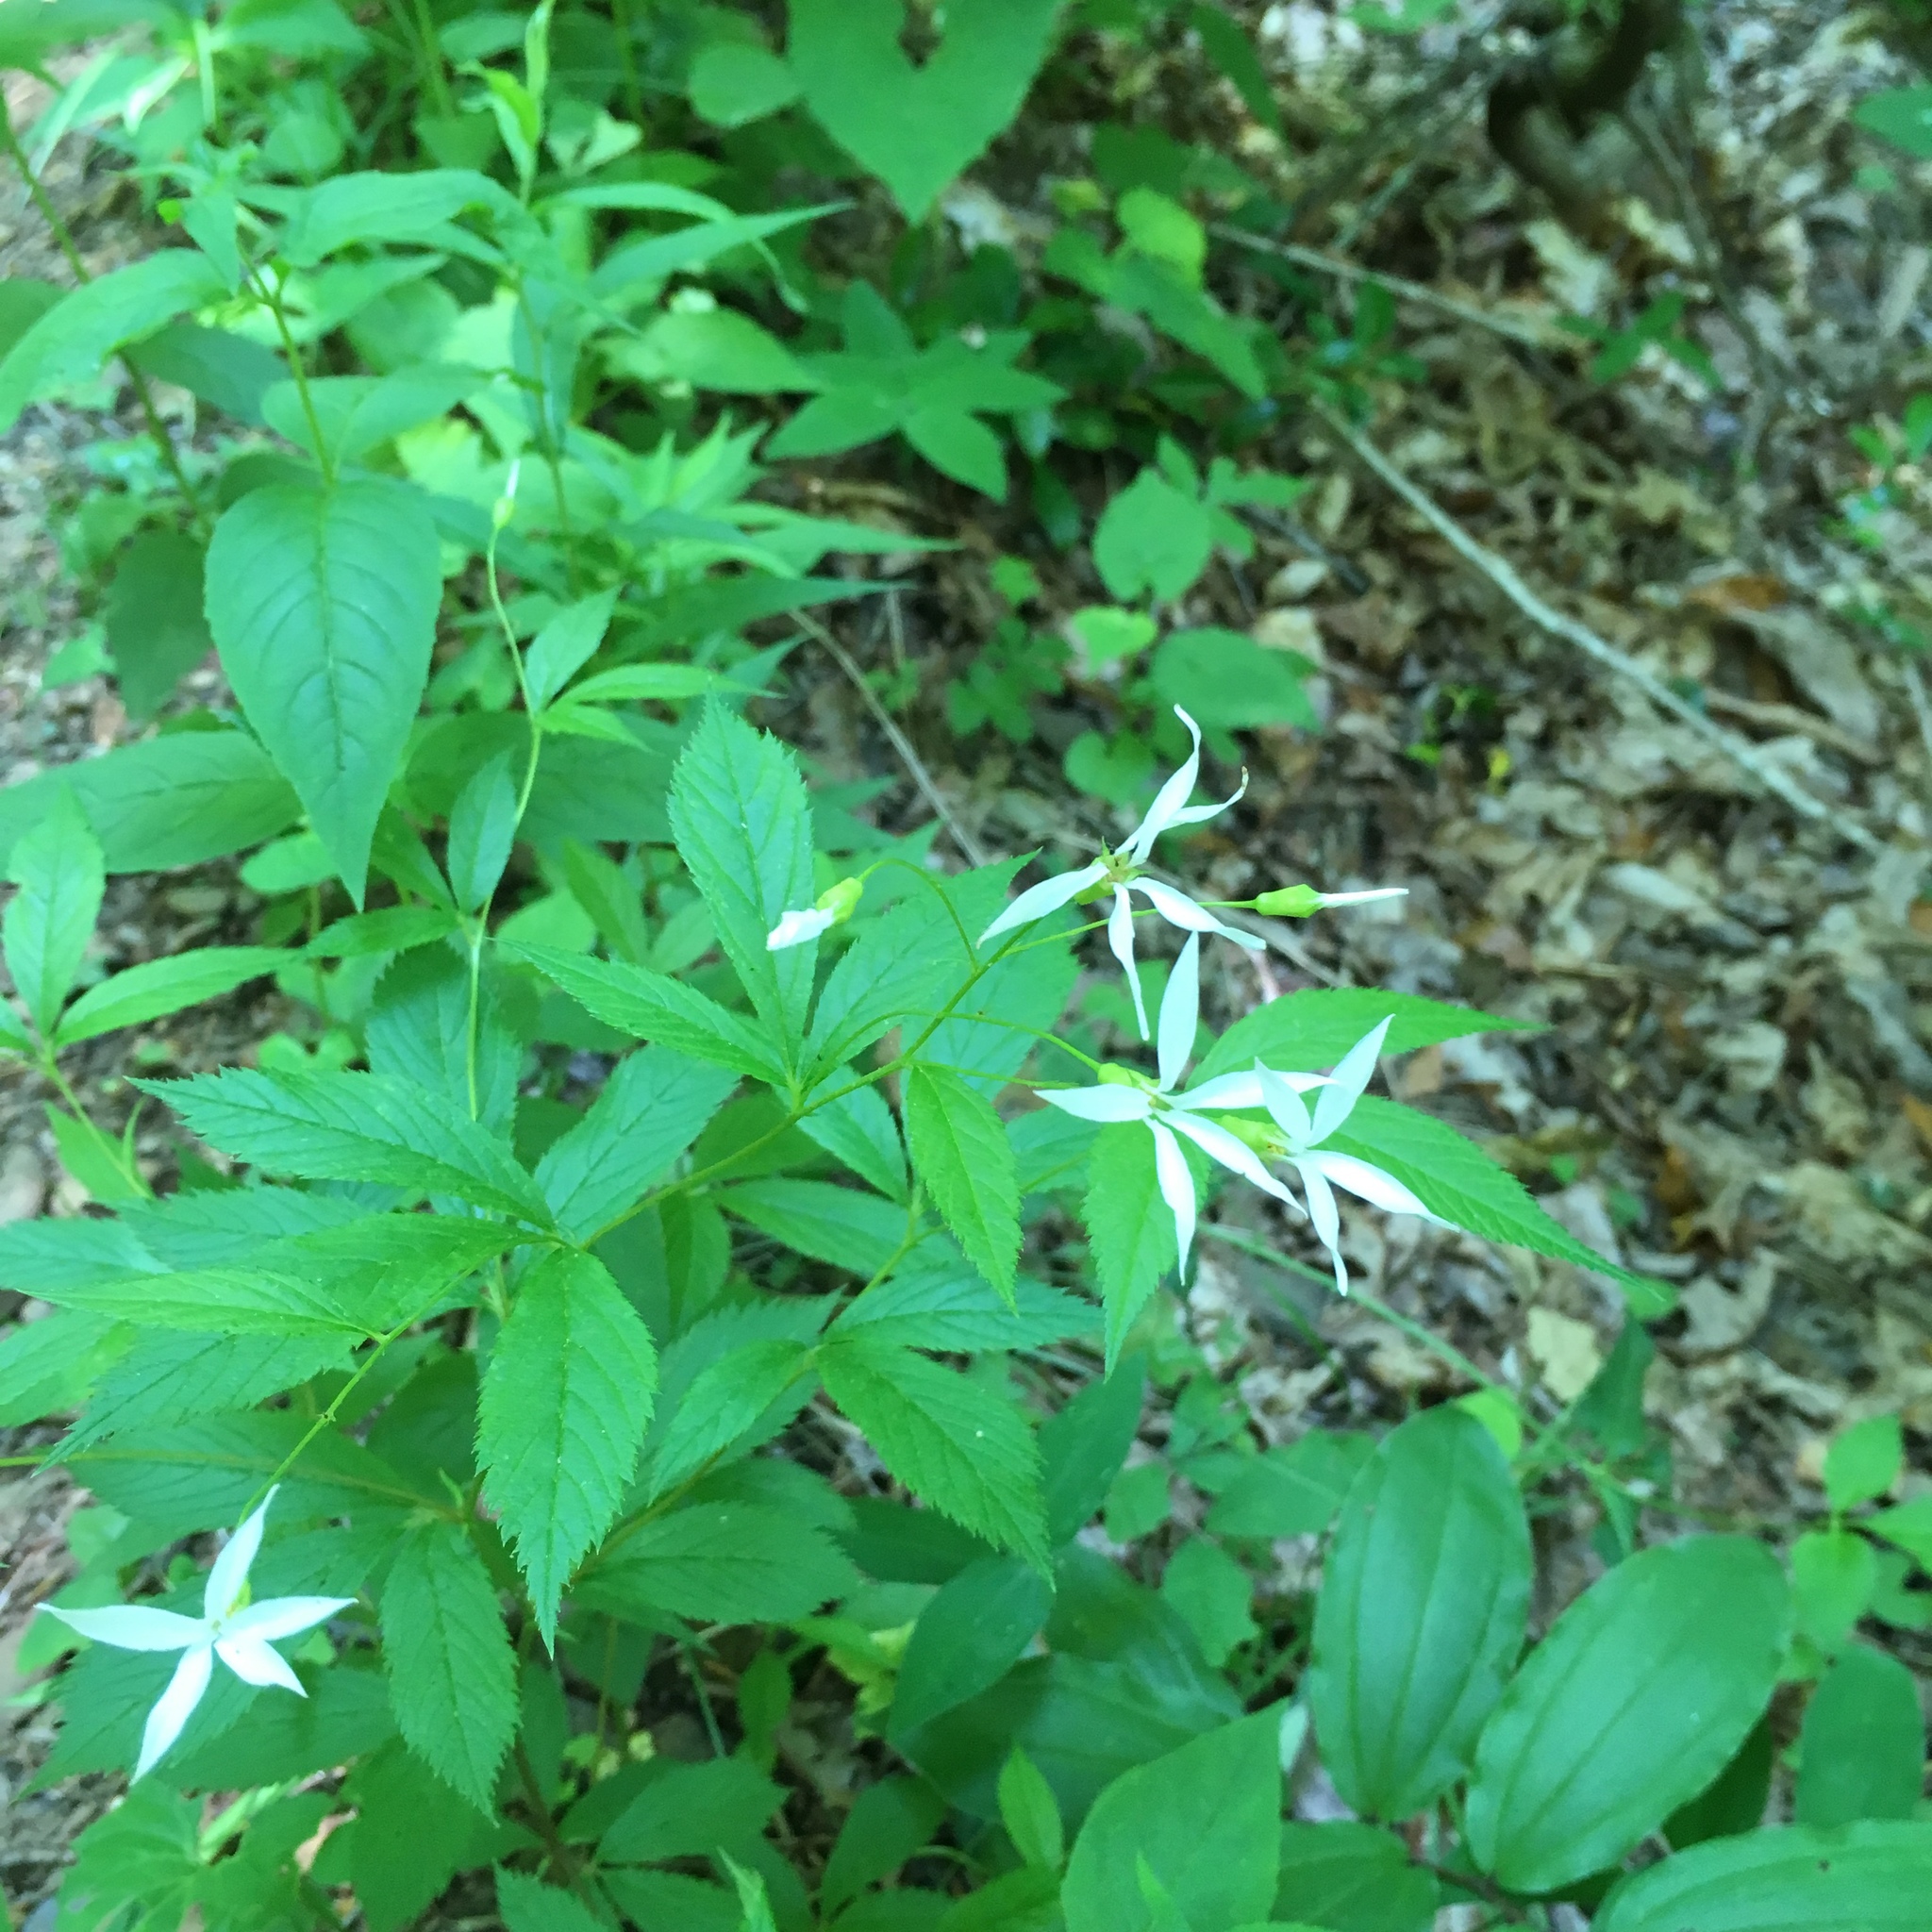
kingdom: Plantae
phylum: Tracheophyta
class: Magnoliopsida
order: Rosales
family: Rosaceae
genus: Gillenia
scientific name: Gillenia trifoliata
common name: Bowman's-root
